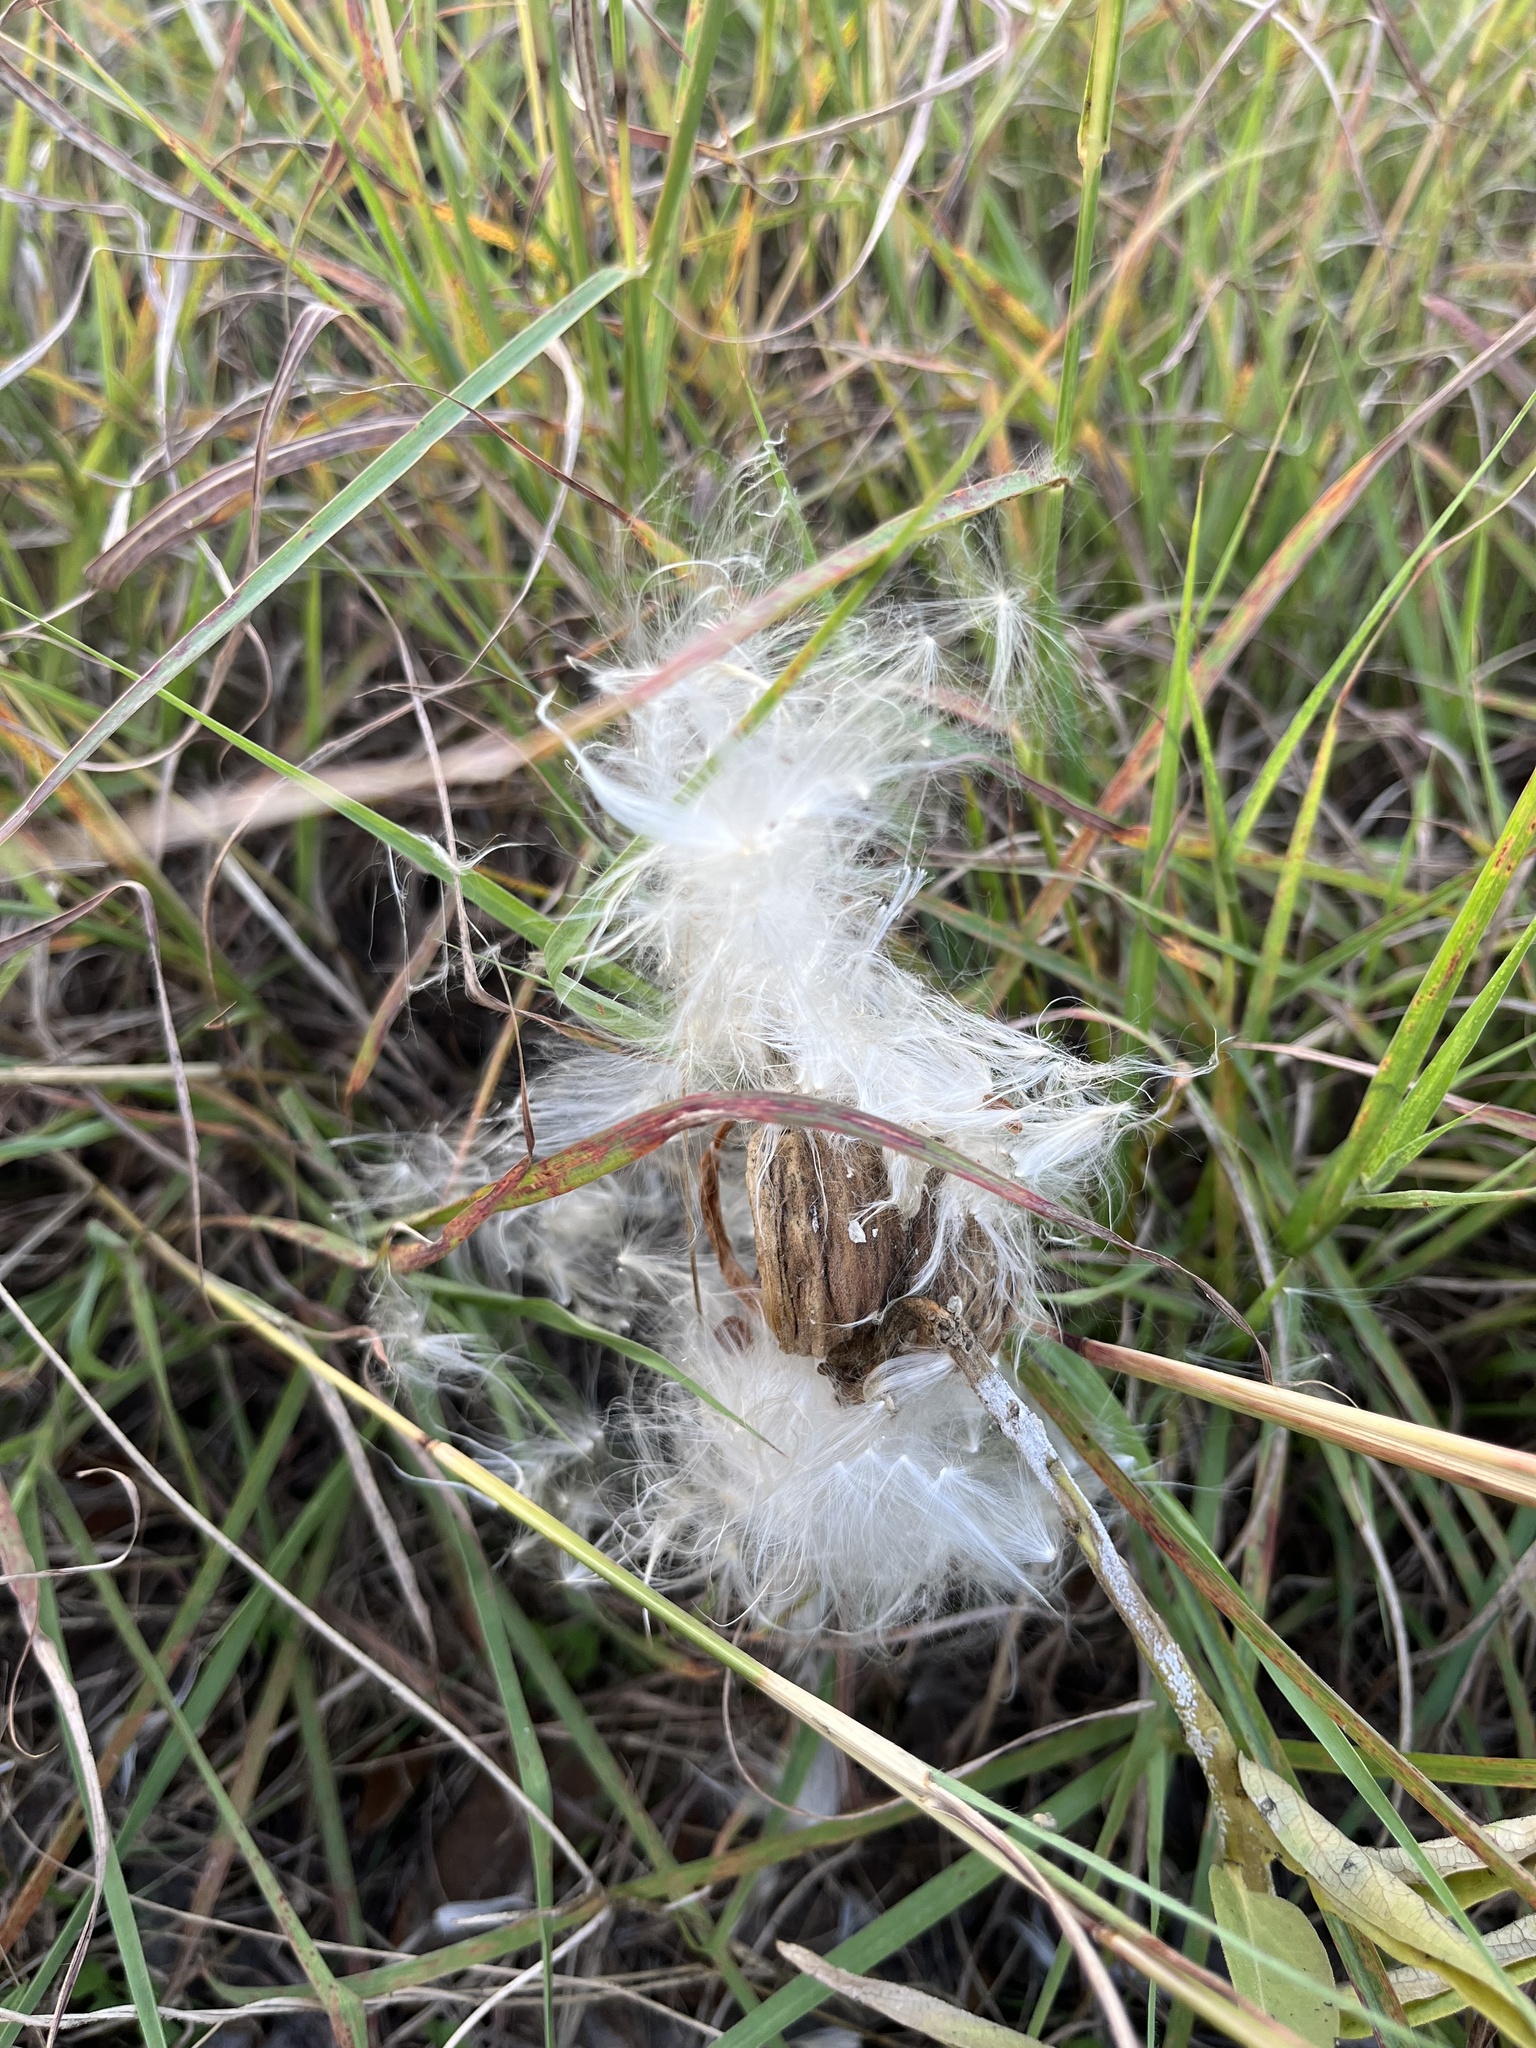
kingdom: Plantae
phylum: Tracheophyta
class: Magnoliopsida
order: Gentianales
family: Apocynaceae
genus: Asclepias
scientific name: Asclepias asperula
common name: Antelope horns
